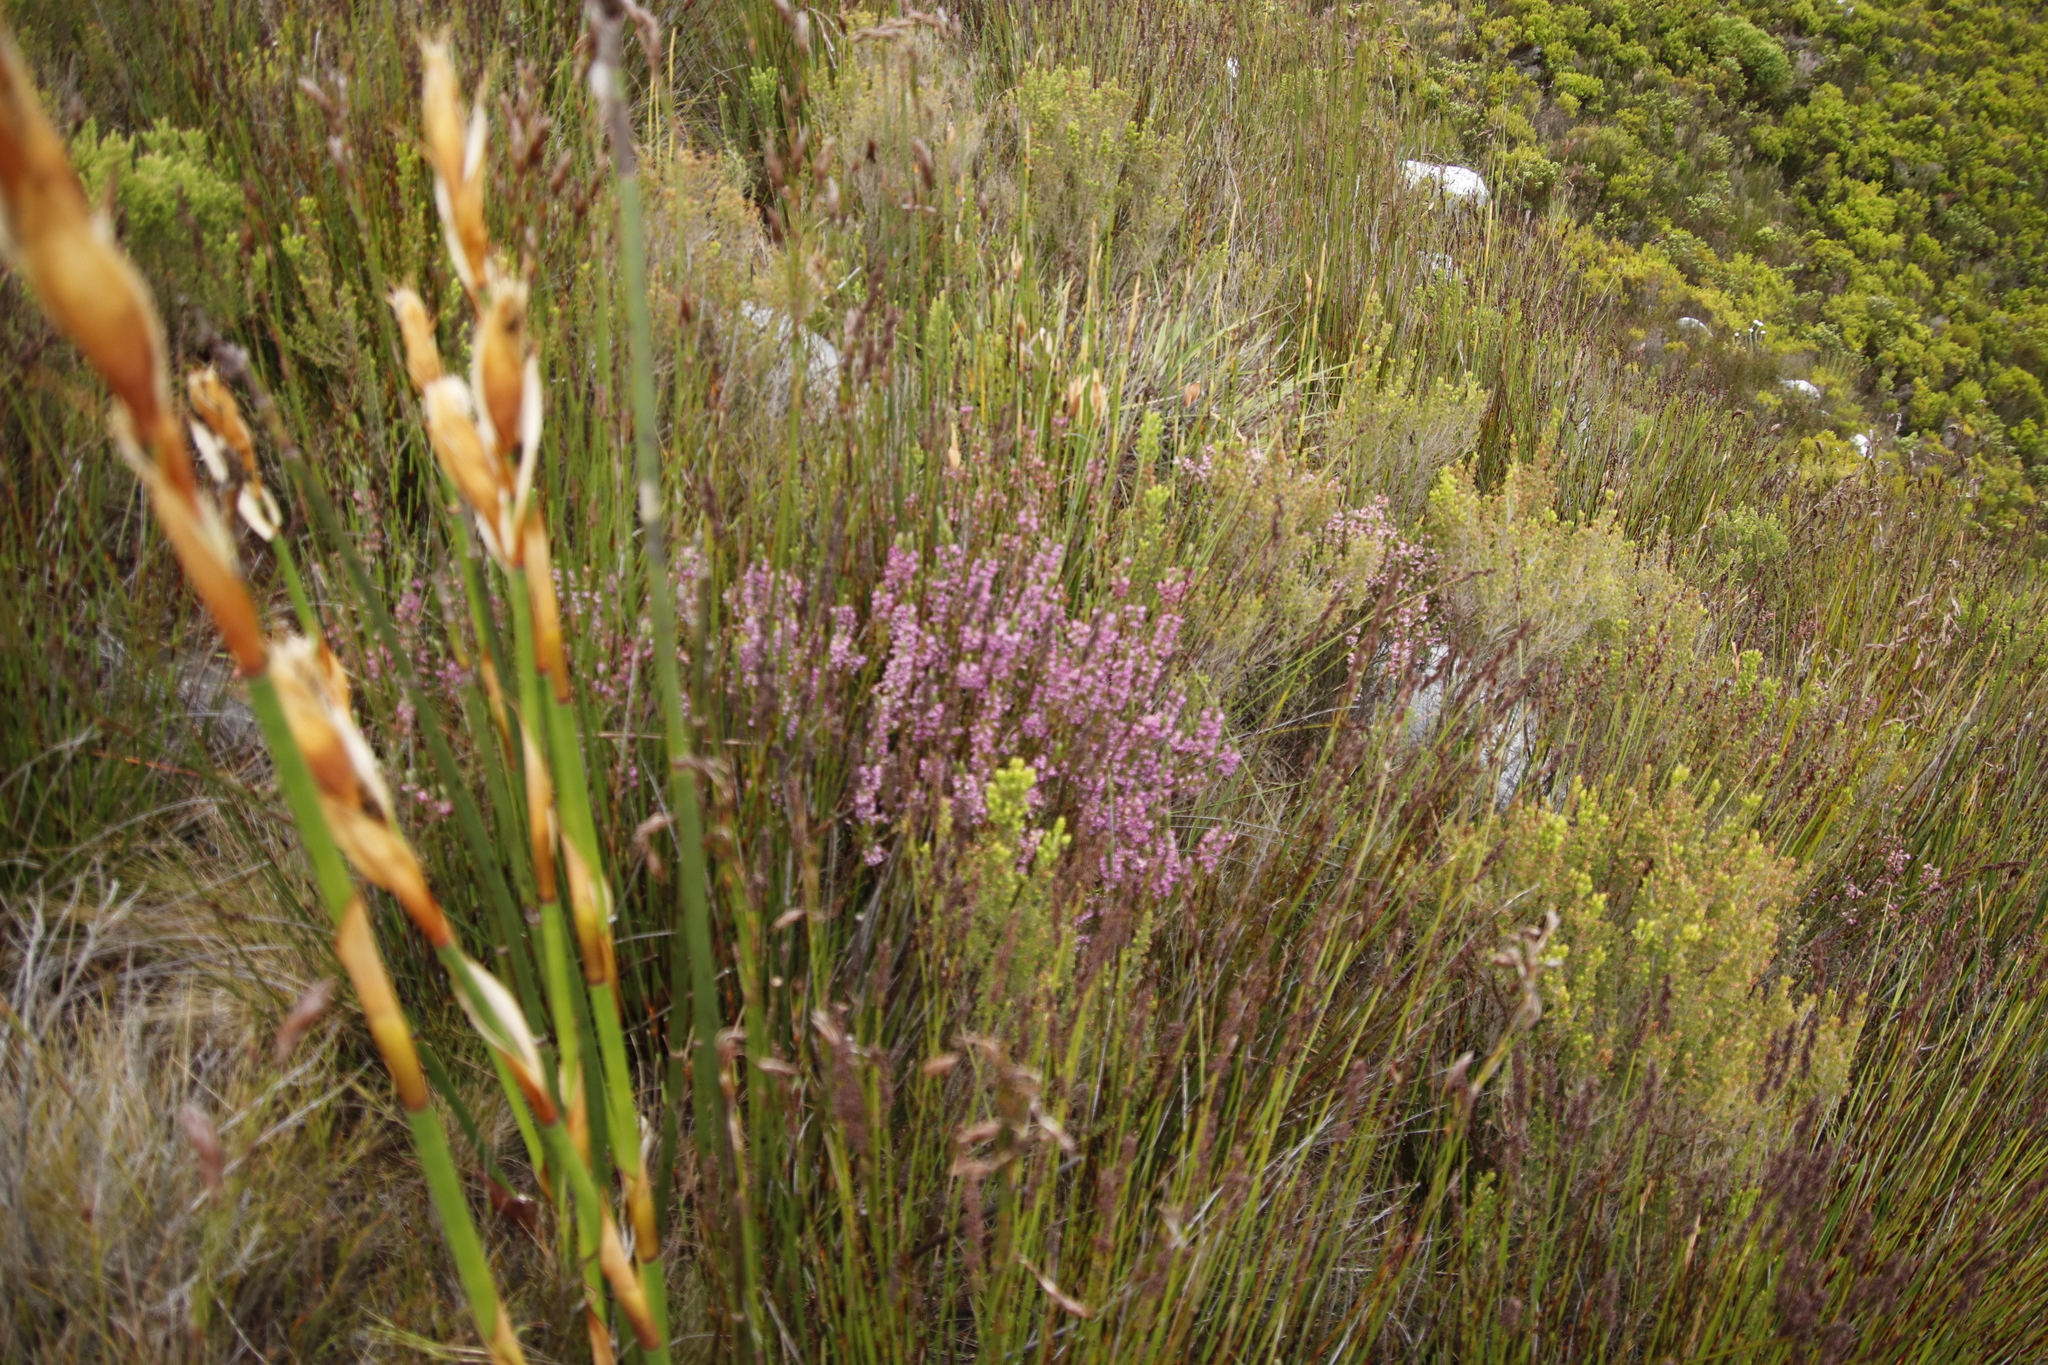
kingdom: Plantae
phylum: Tracheophyta
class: Magnoliopsida
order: Ericales
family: Ericaceae
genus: Erica
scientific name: Erica calycina
